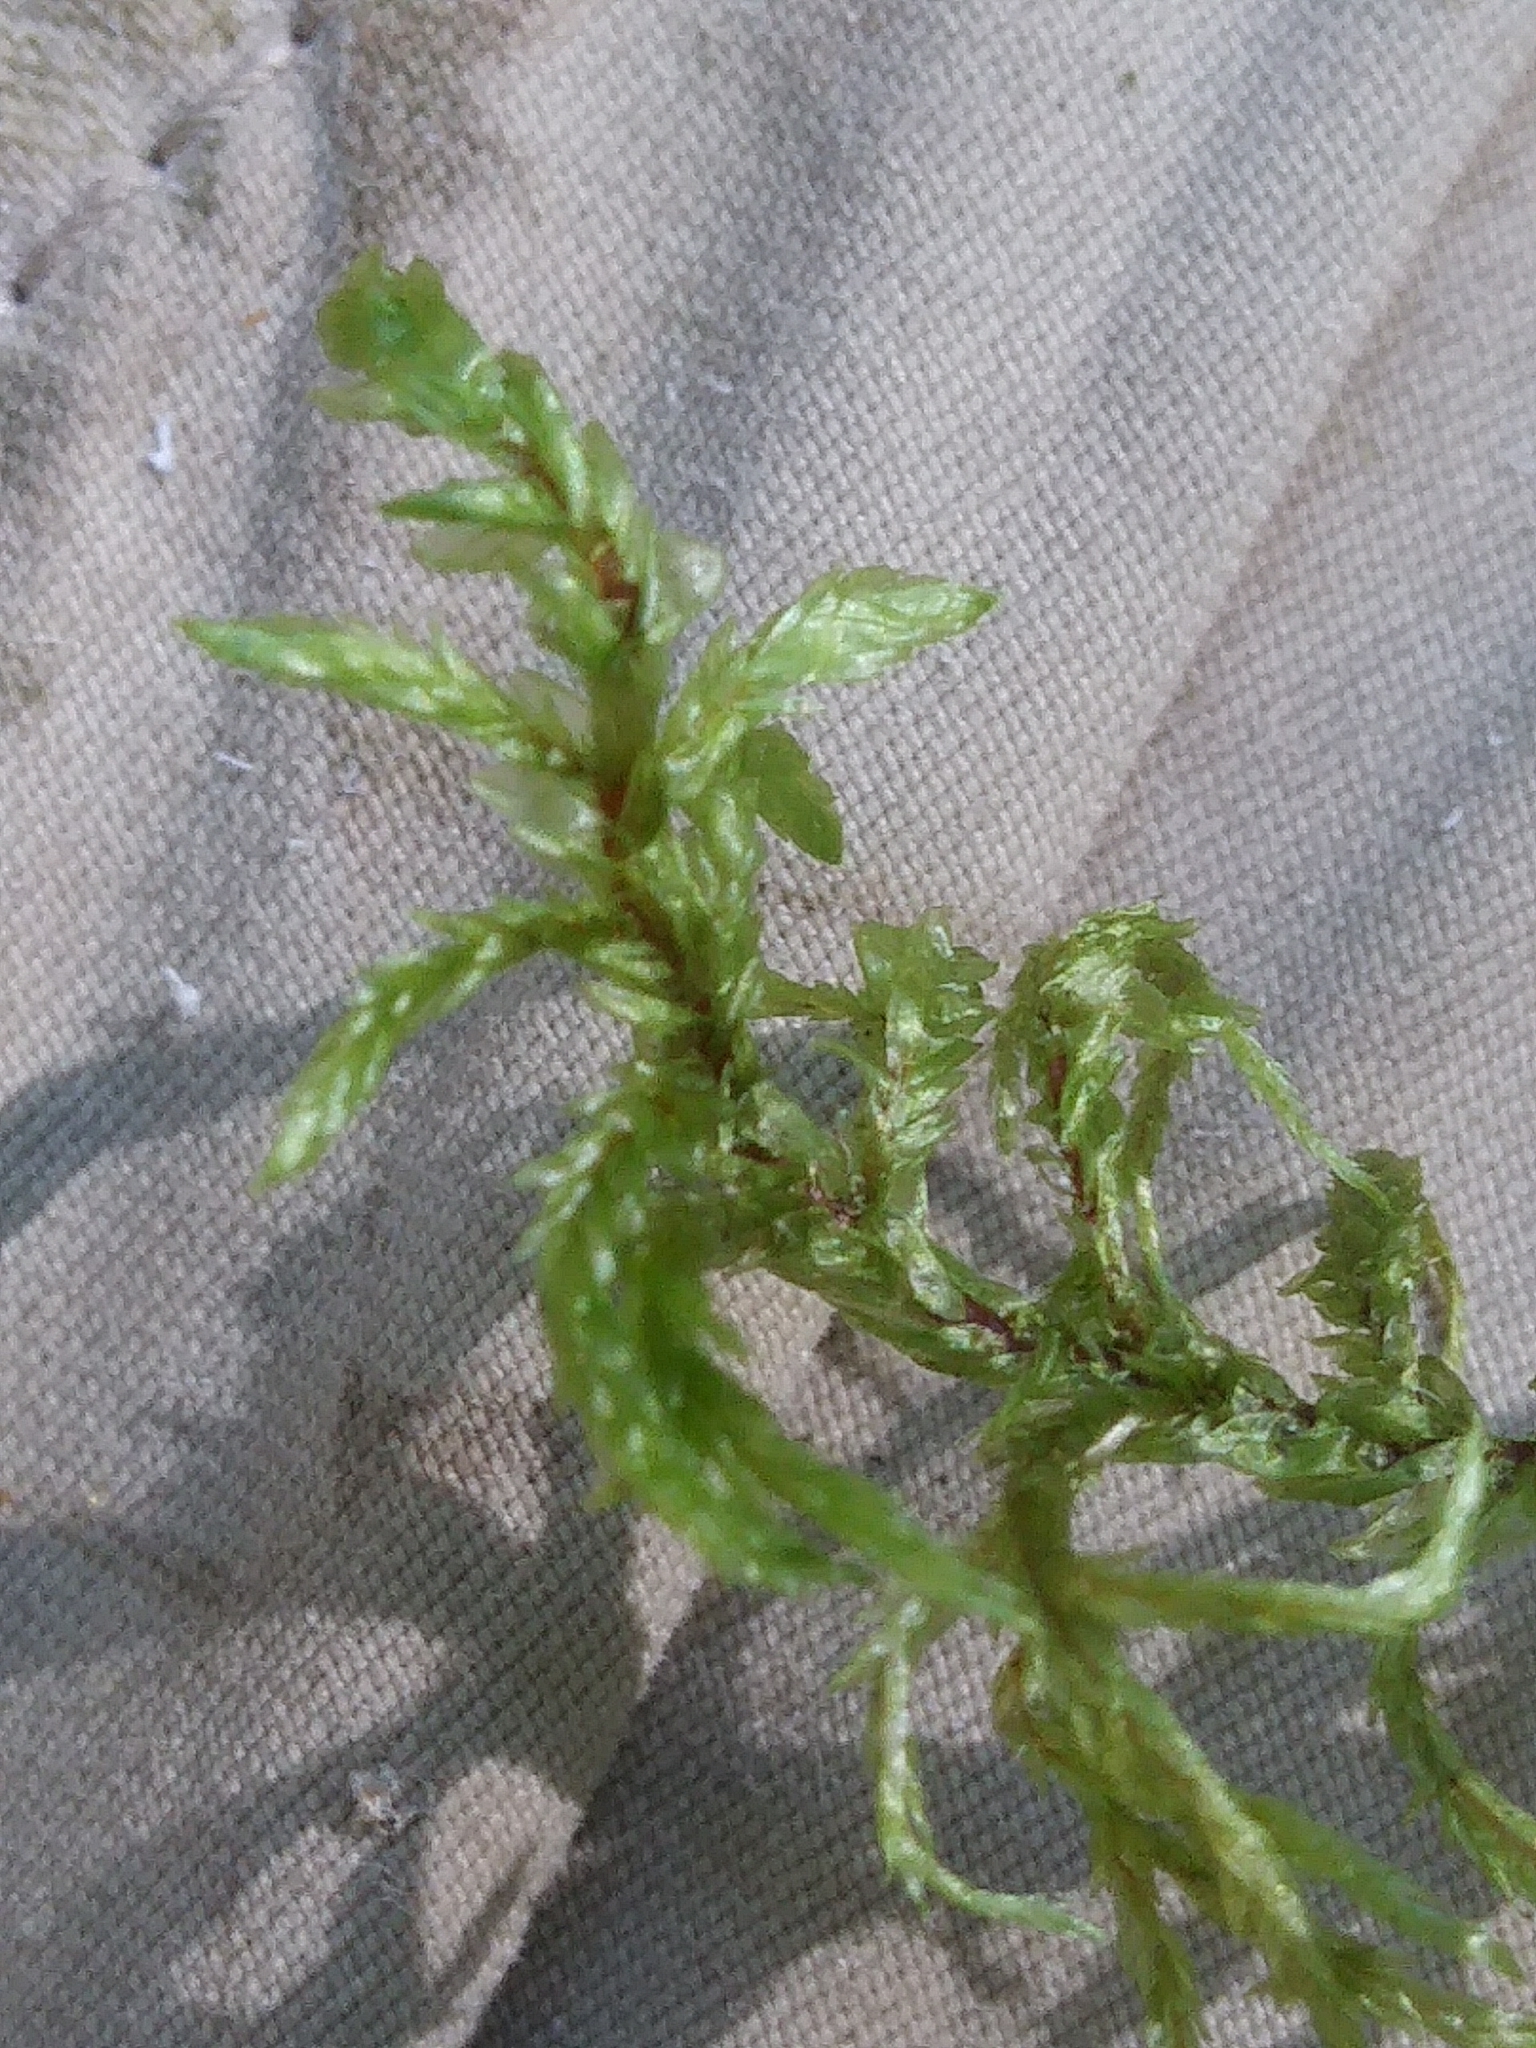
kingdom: Plantae
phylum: Bryophyta
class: Bryopsida
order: Hypnales
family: Hylocomiaceae
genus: Pleurozium
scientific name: Pleurozium schreberi
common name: Red-stemmed feather moss
